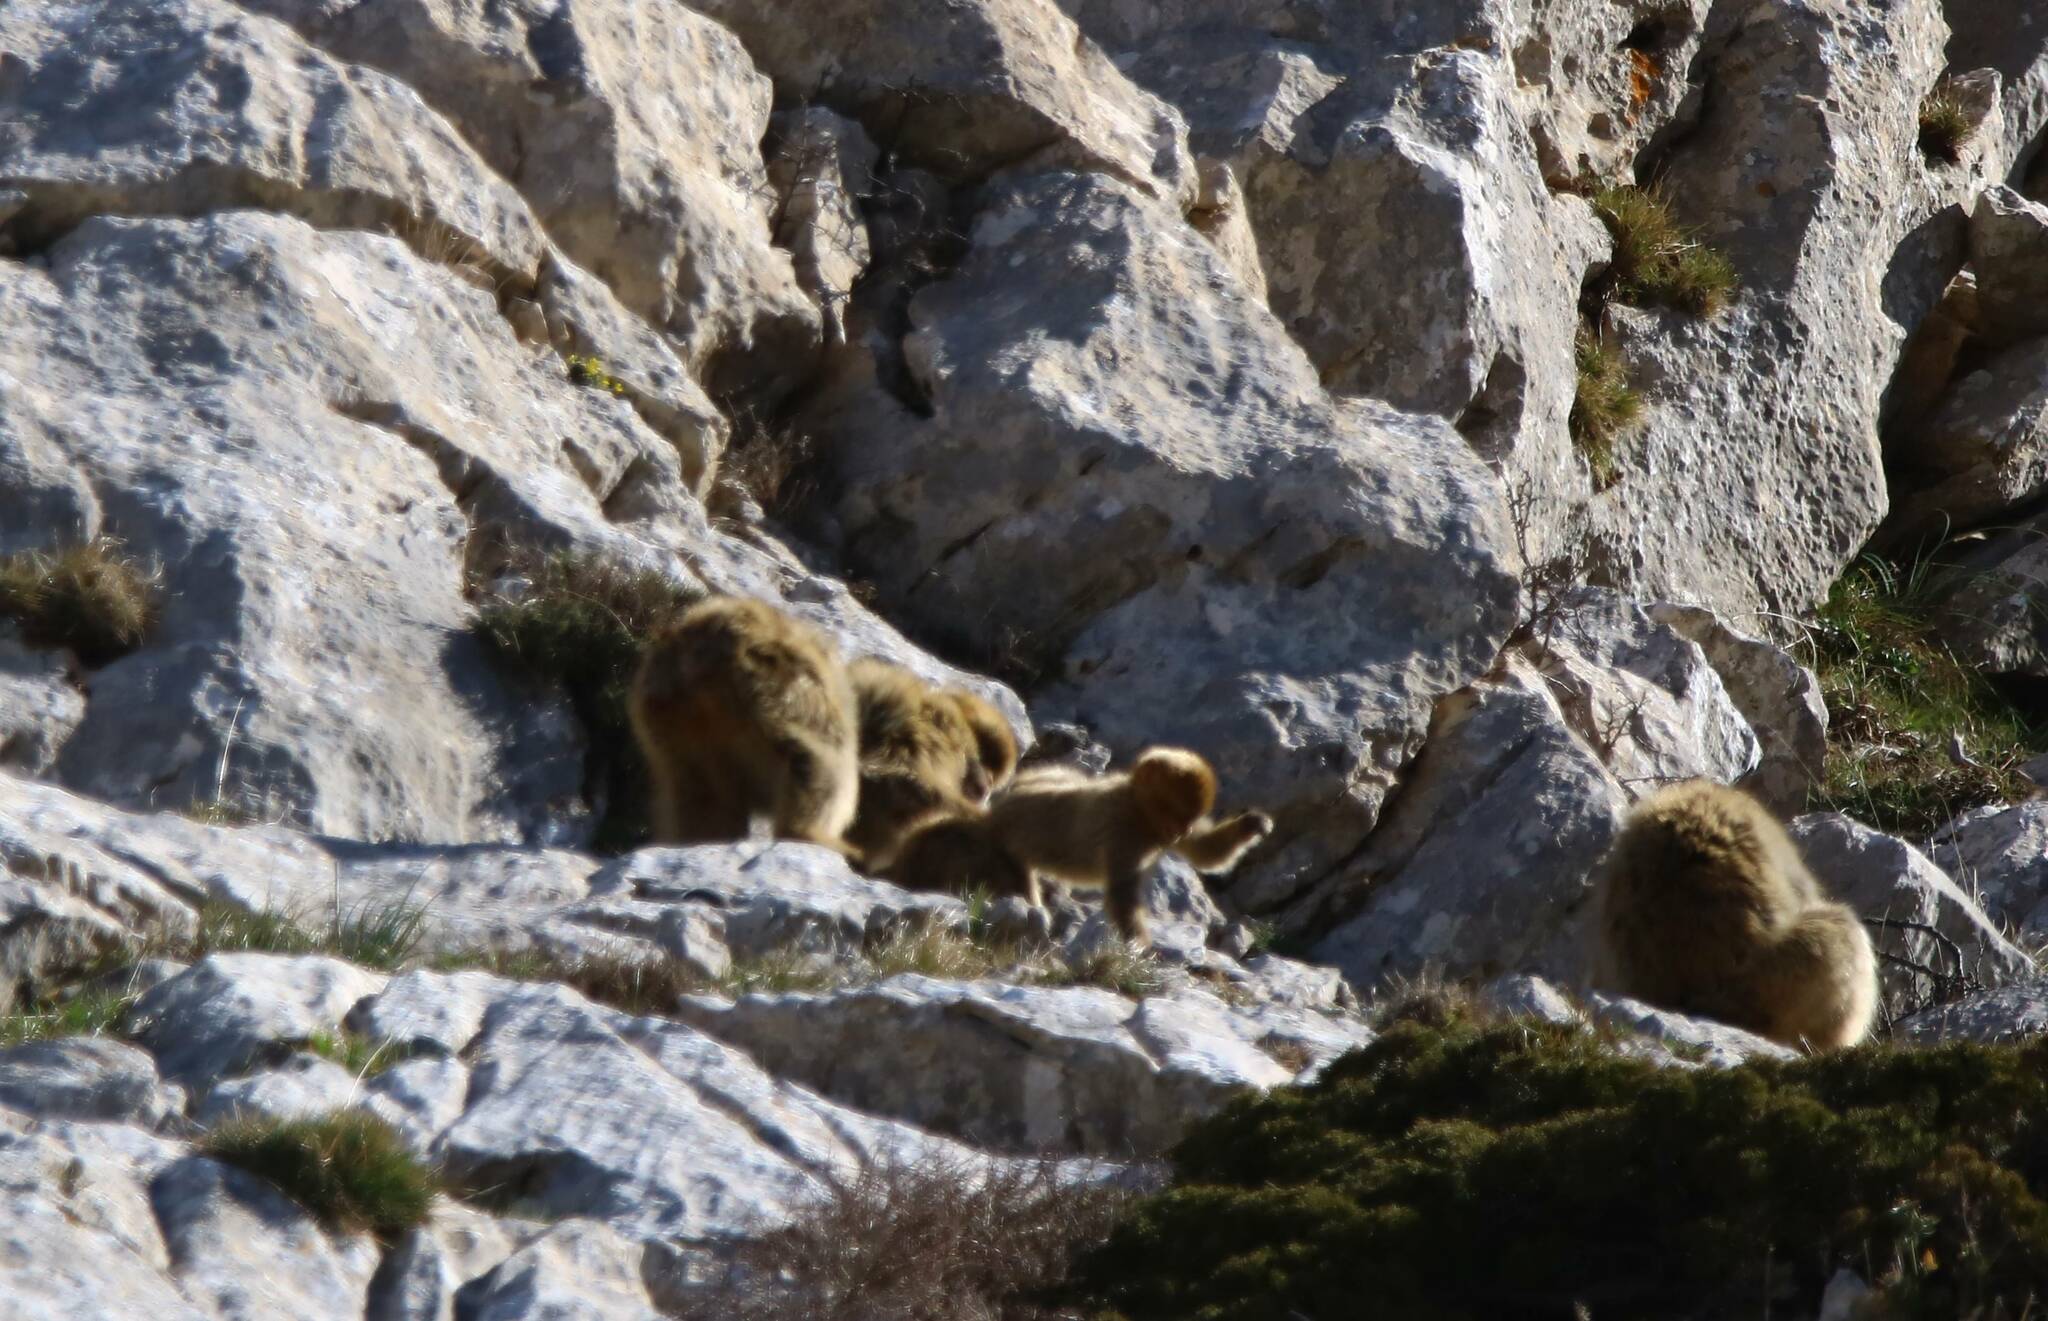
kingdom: Animalia
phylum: Chordata
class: Mammalia
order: Primates
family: Cercopithecidae
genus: Macaca
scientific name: Macaca sylvanus
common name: Barbary macaque
